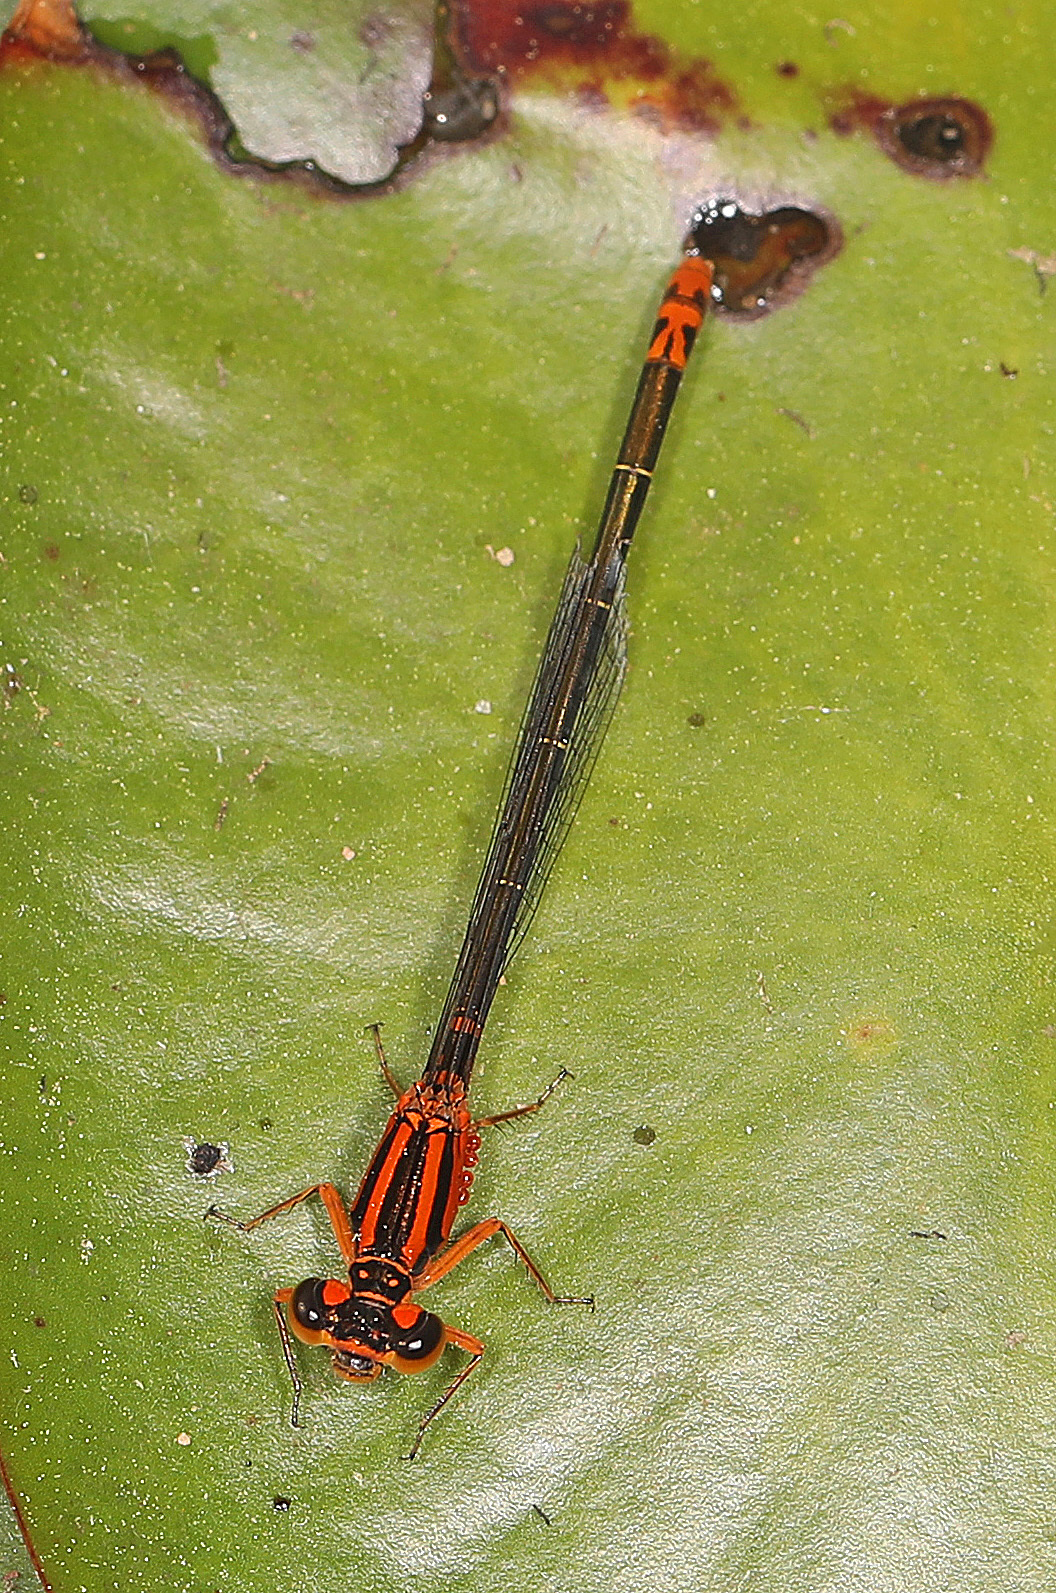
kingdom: Animalia
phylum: Arthropoda
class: Insecta
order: Odonata
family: Coenagrionidae
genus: Ischnura
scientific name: Ischnura kellicotti
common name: Lilypad forktail
